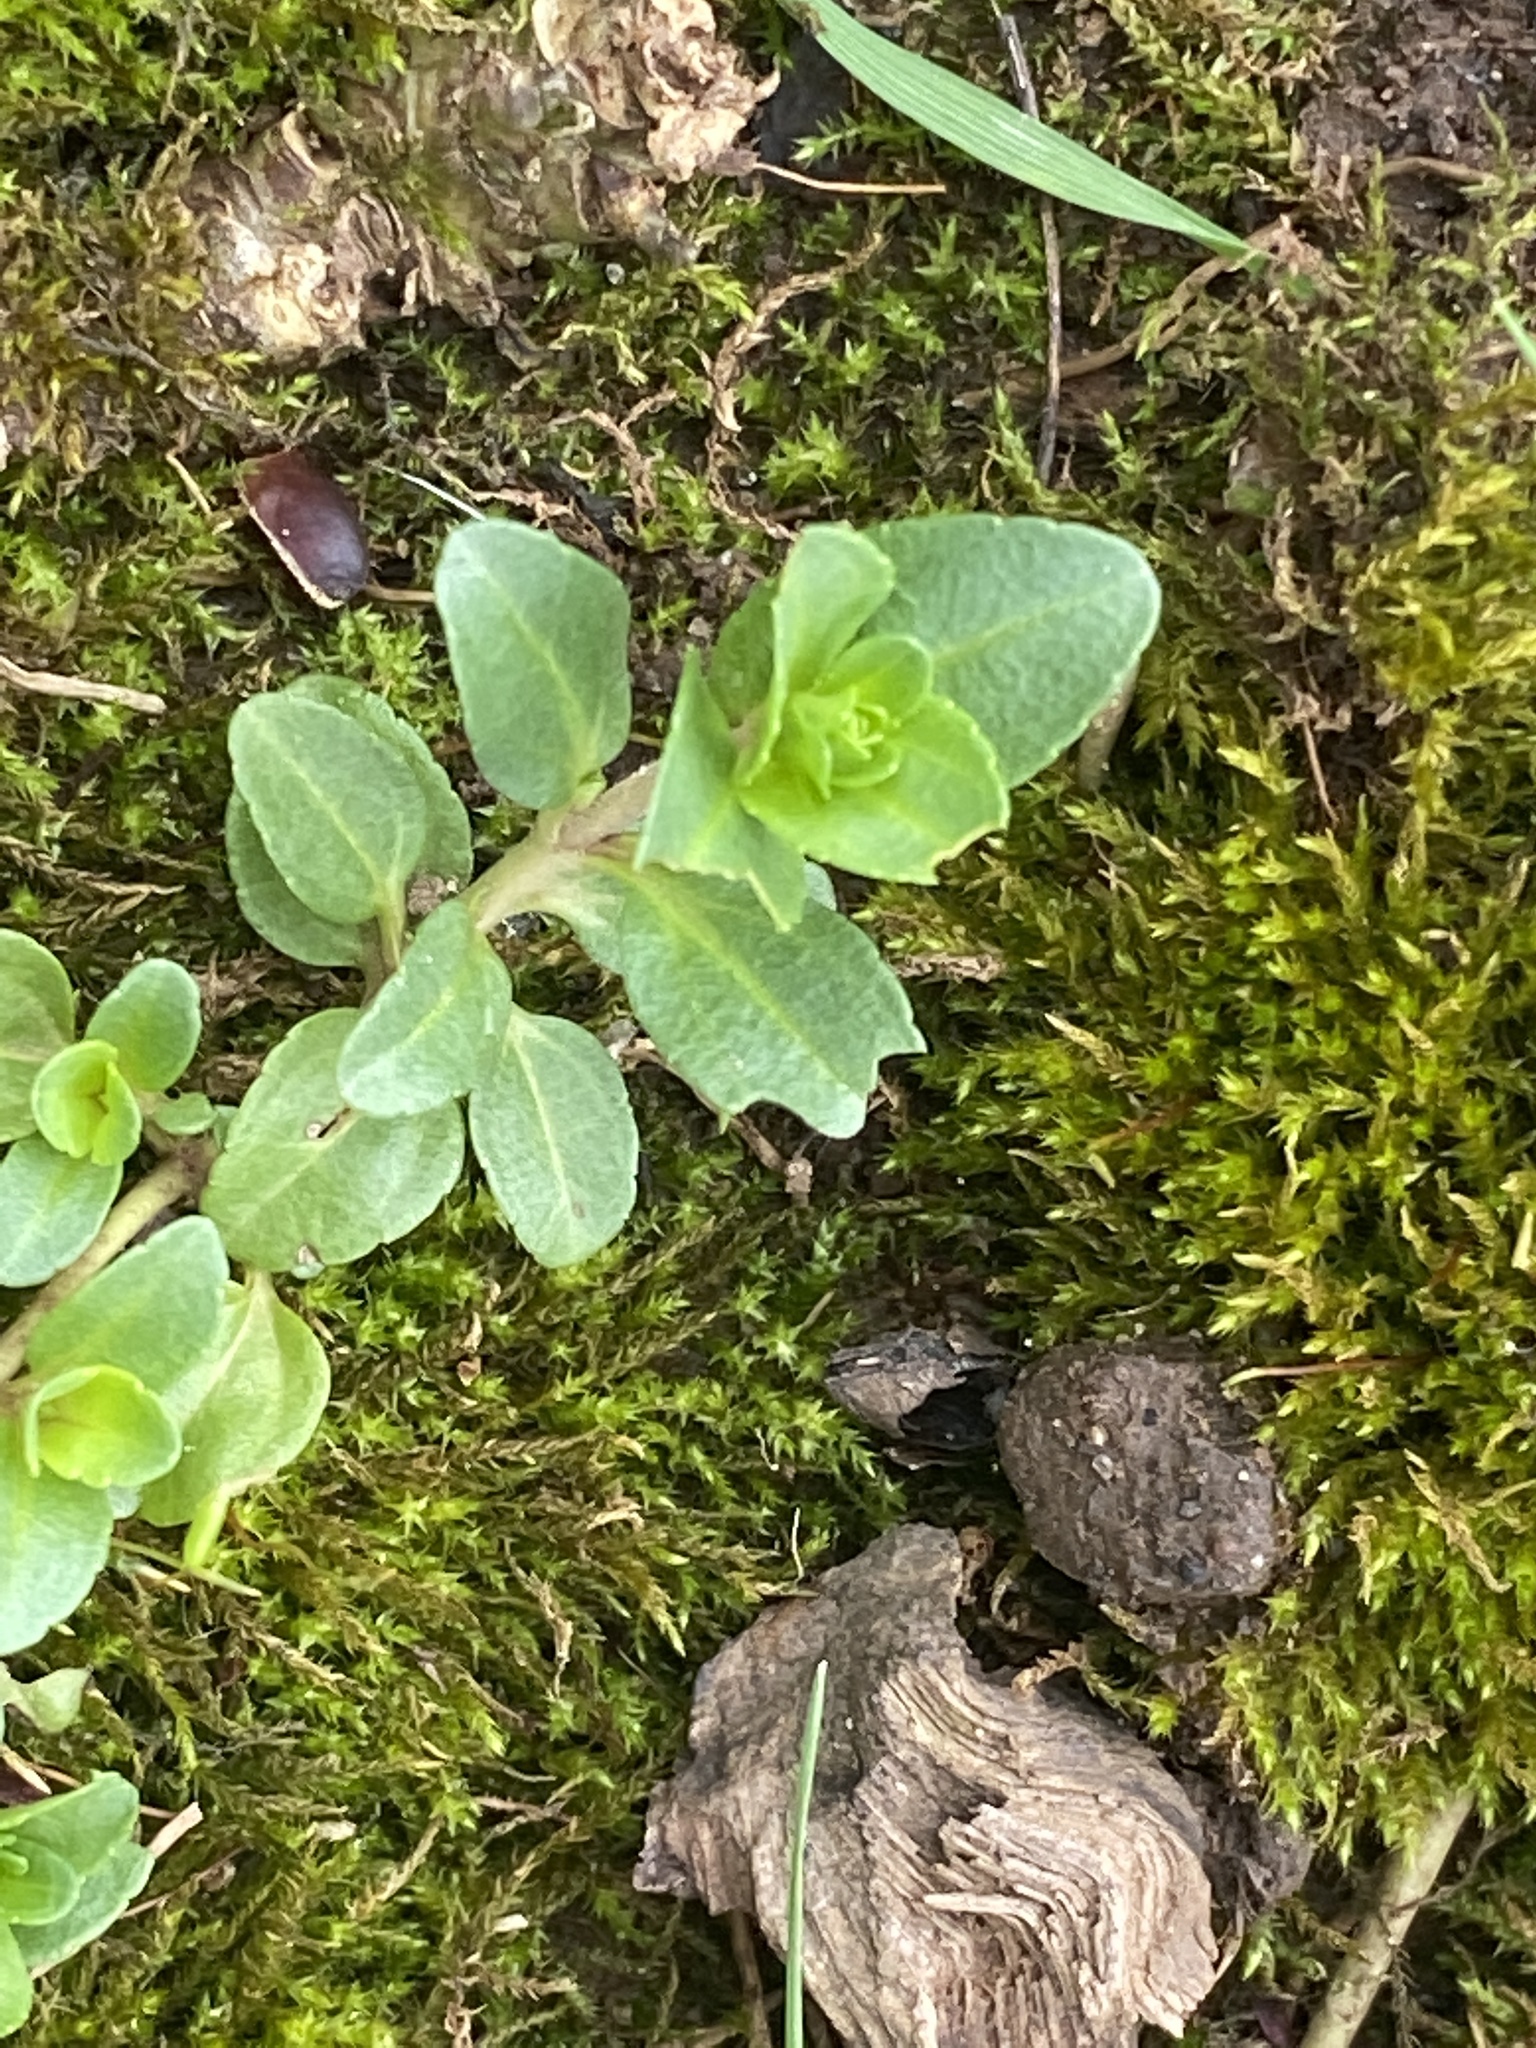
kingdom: Plantae
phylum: Tracheophyta
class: Magnoliopsida
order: Lamiales
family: Plantaginaceae
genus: Veronica
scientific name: Veronica serpyllifolia
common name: Thyme-leaved speedwell
